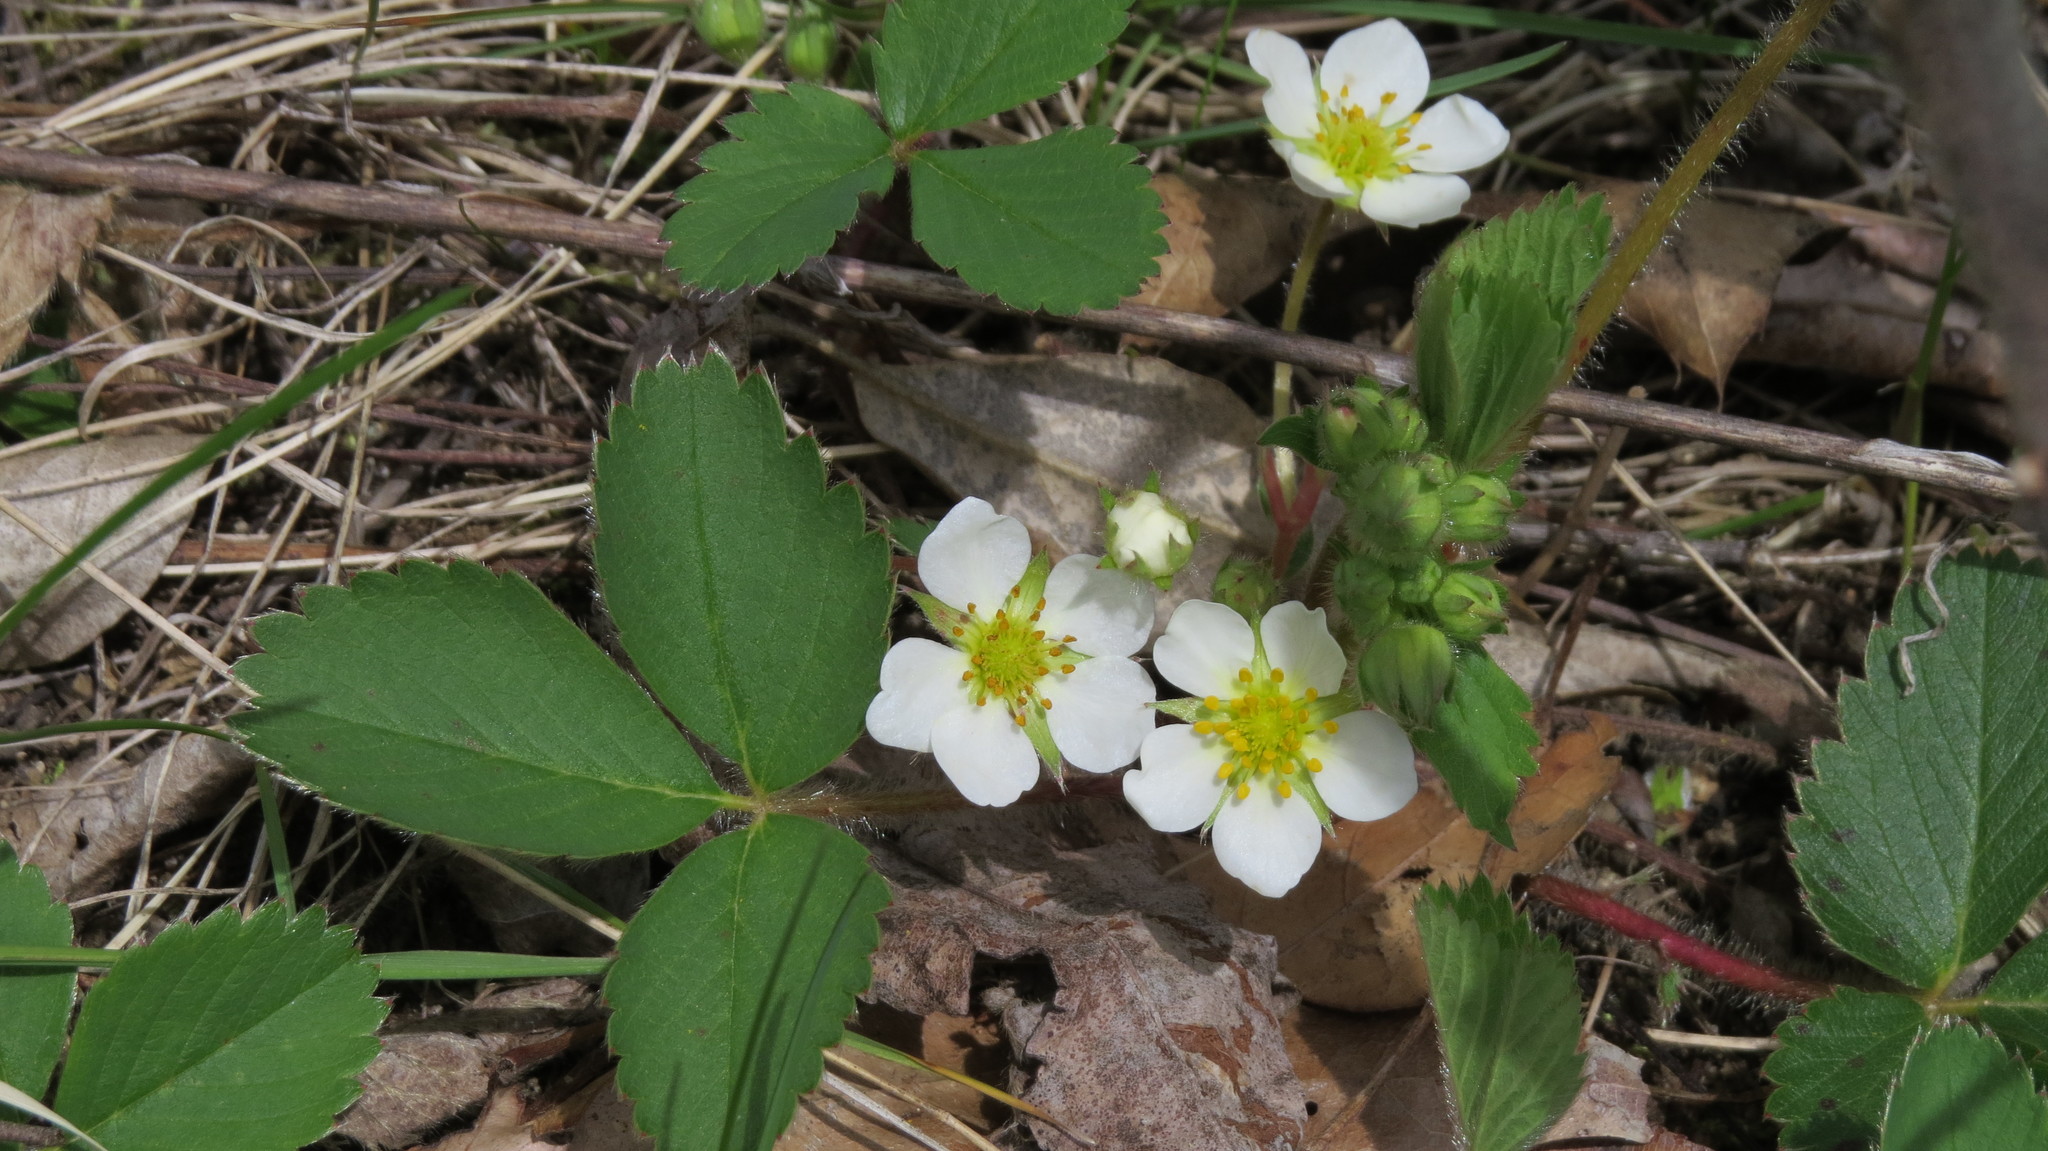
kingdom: Plantae
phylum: Tracheophyta
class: Magnoliopsida
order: Rosales
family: Rosaceae
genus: Fragaria
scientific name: Fragaria virginiana
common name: Thickleaved wild strawberry
